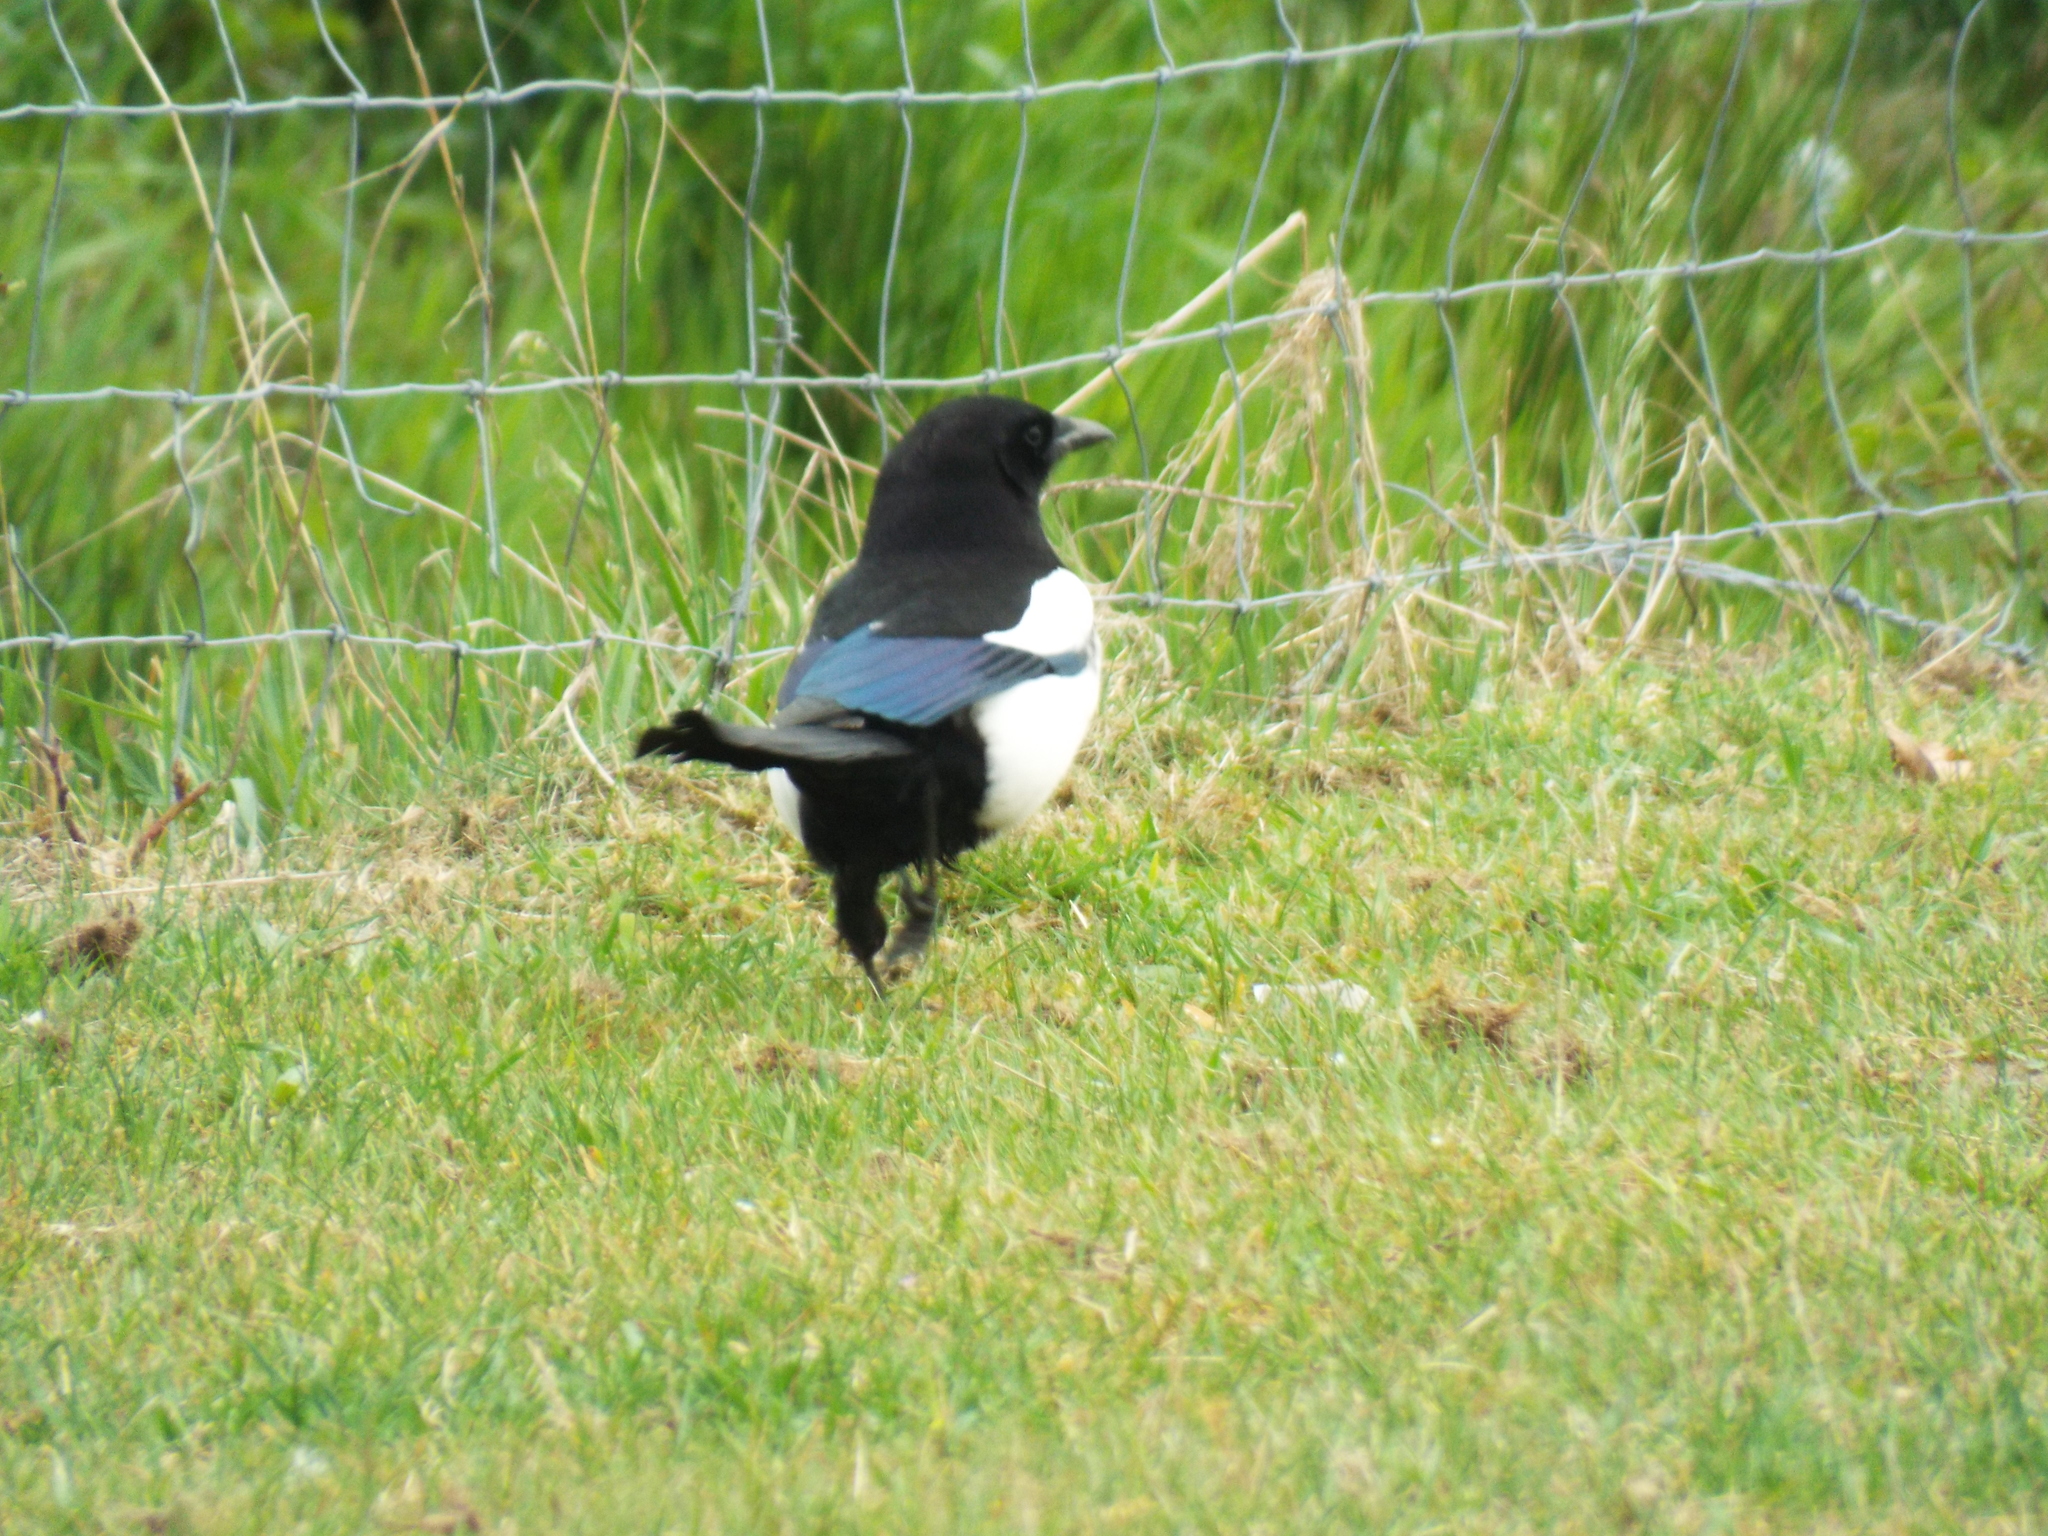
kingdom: Animalia
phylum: Chordata
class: Aves
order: Passeriformes
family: Corvidae
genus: Pica
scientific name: Pica pica
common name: Eurasian magpie
